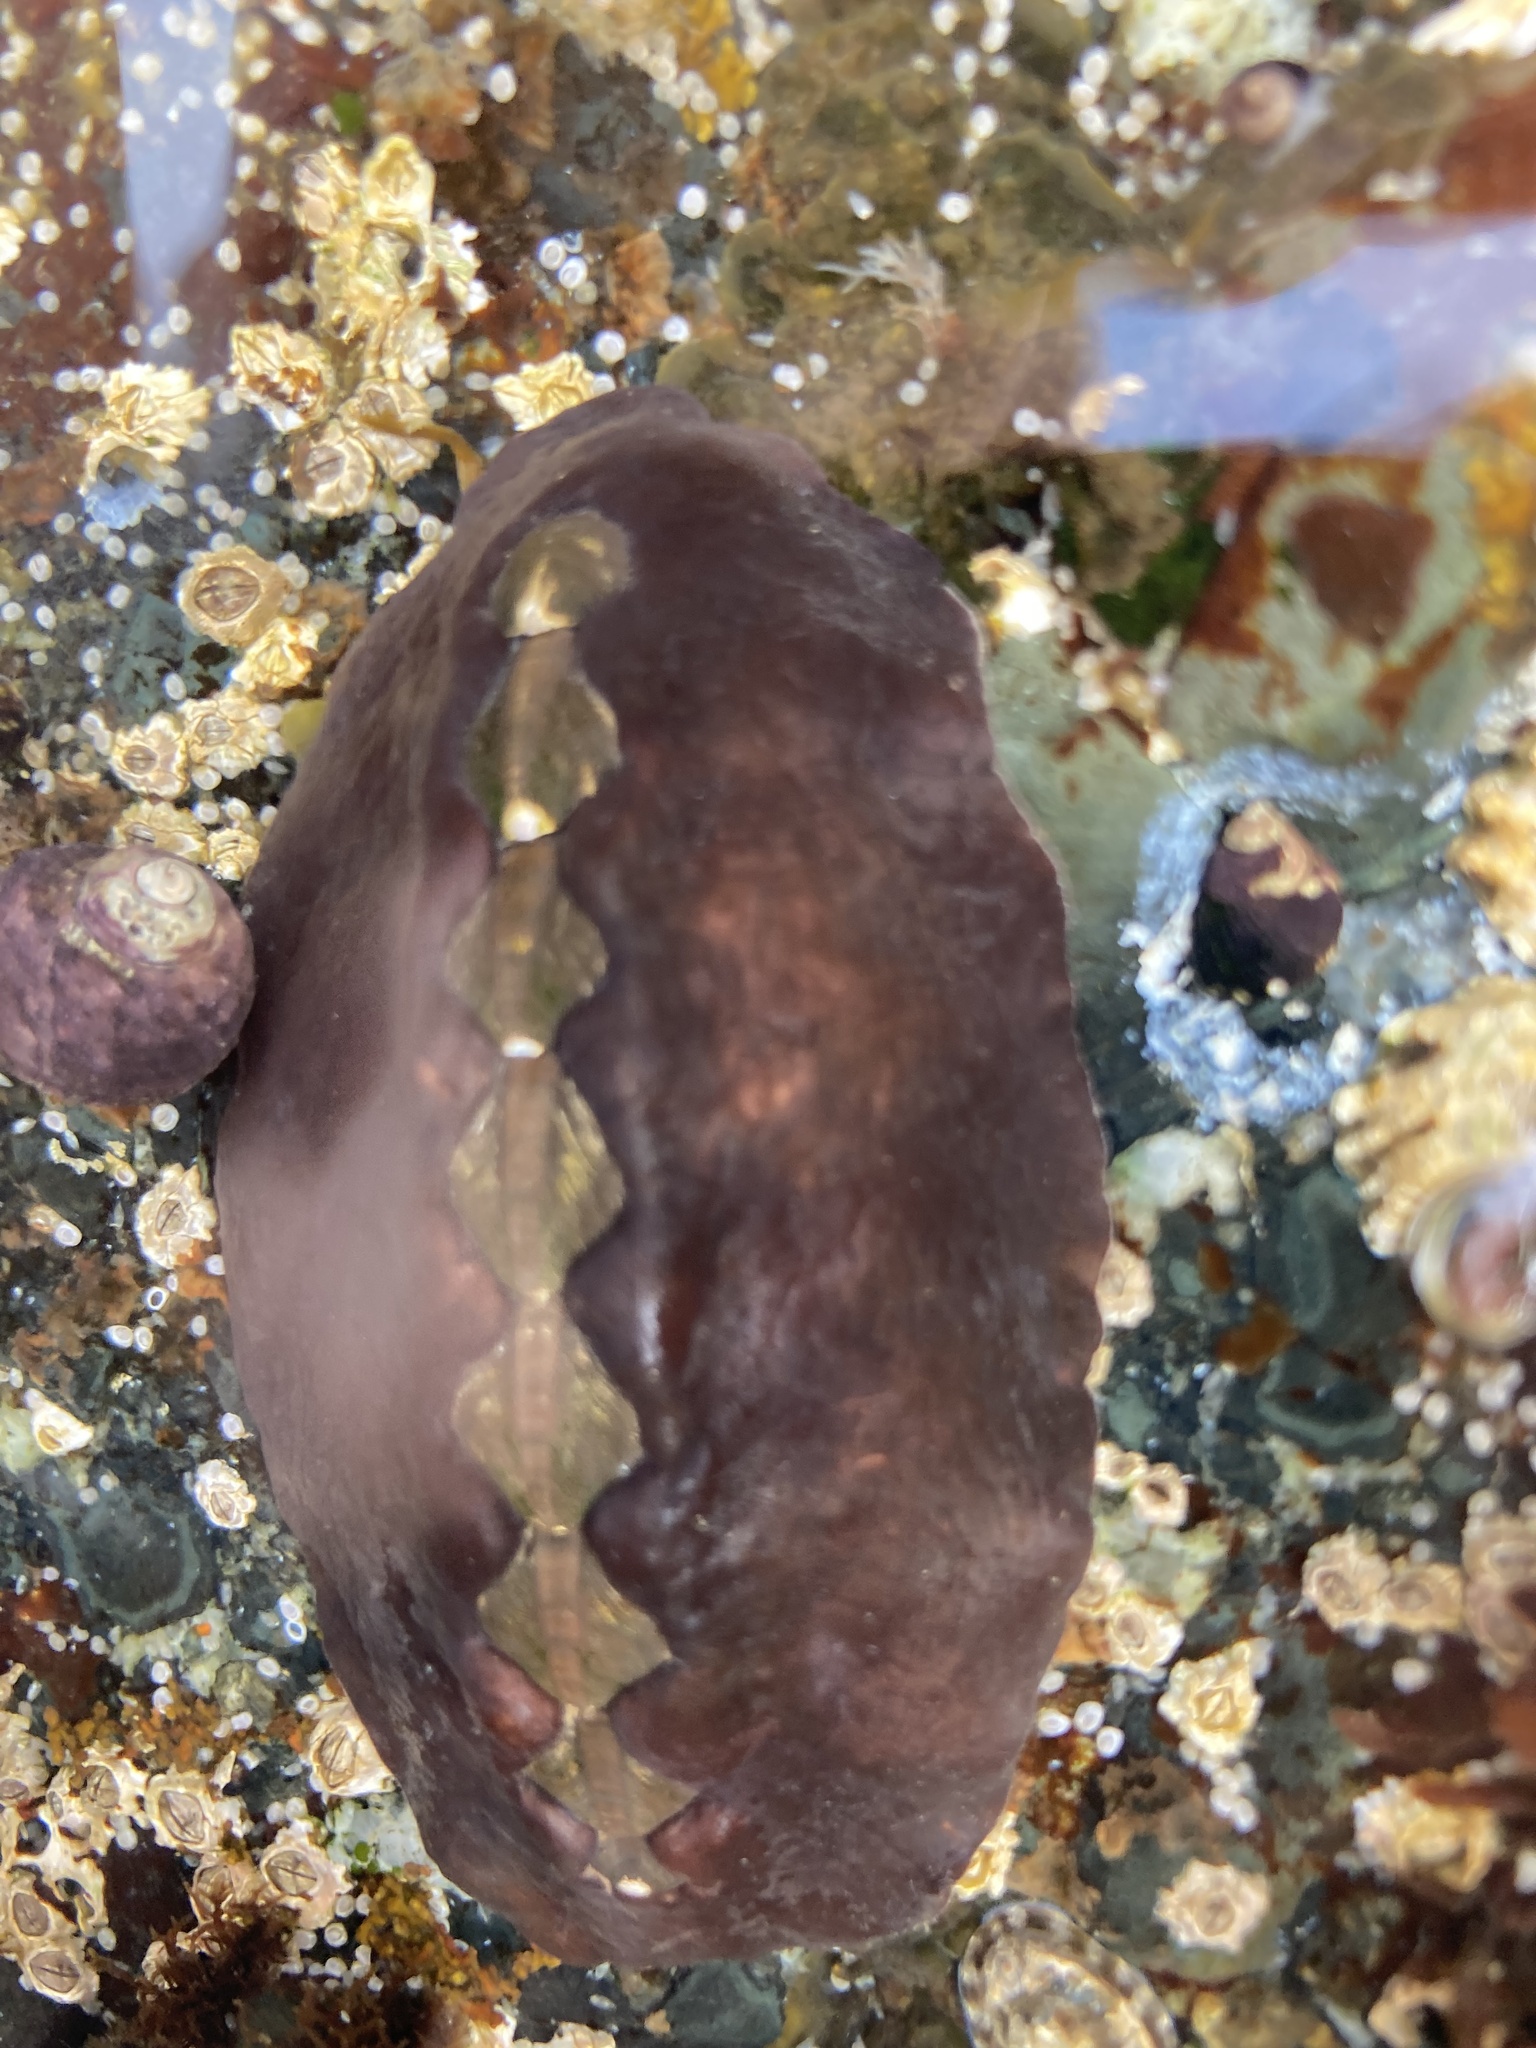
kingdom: Animalia
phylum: Mollusca
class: Polyplacophora
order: Chitonida
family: Mopaliidae
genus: Katharina
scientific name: Katharina tunicata
